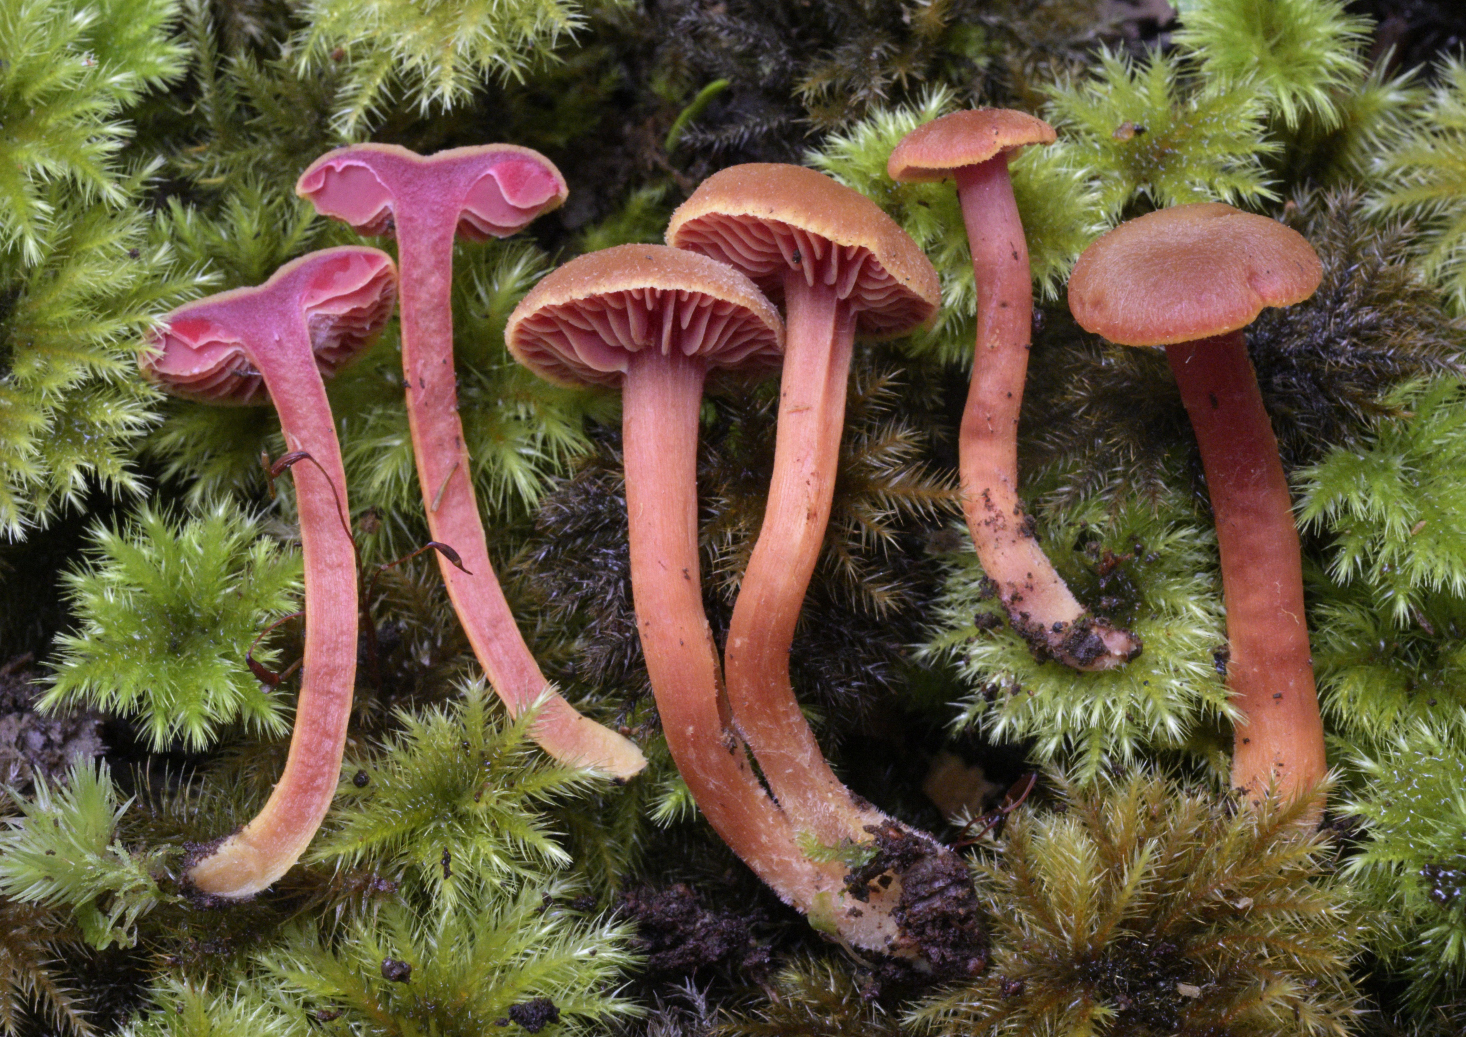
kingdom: Fungi
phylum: Basidiomycota
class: Agaricomycetes
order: Agaricales
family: Hygrophoraceae
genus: Hygrocybe
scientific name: Hygrocybe rubrocarnosa
